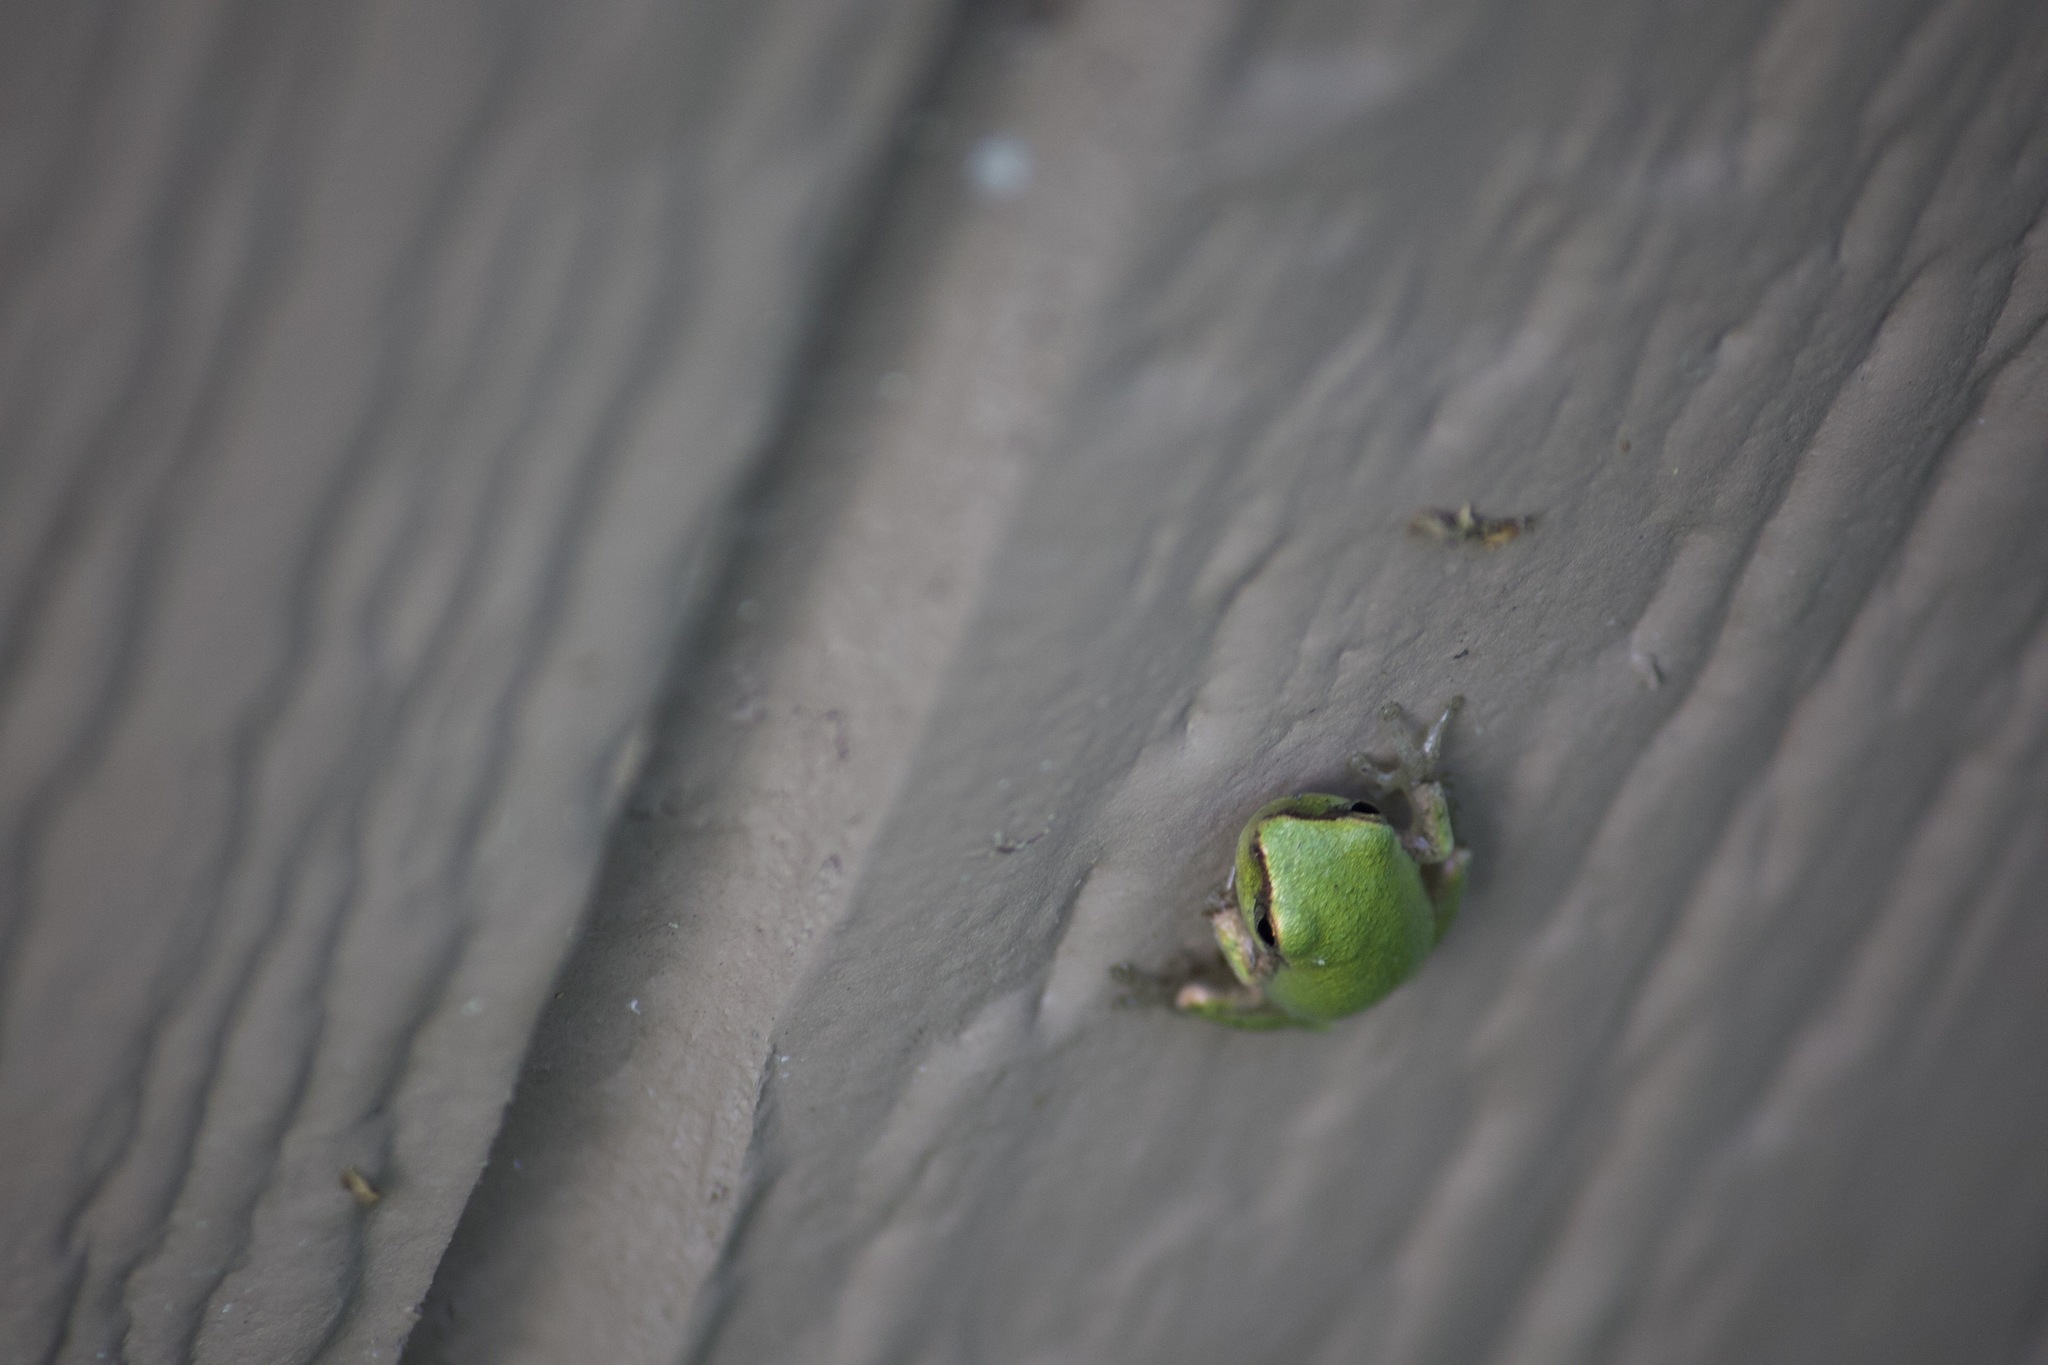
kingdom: Animalia
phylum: Chordata
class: Amphibia
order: Anura
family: Hylidae
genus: Hyla
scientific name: Hyla femoralis
